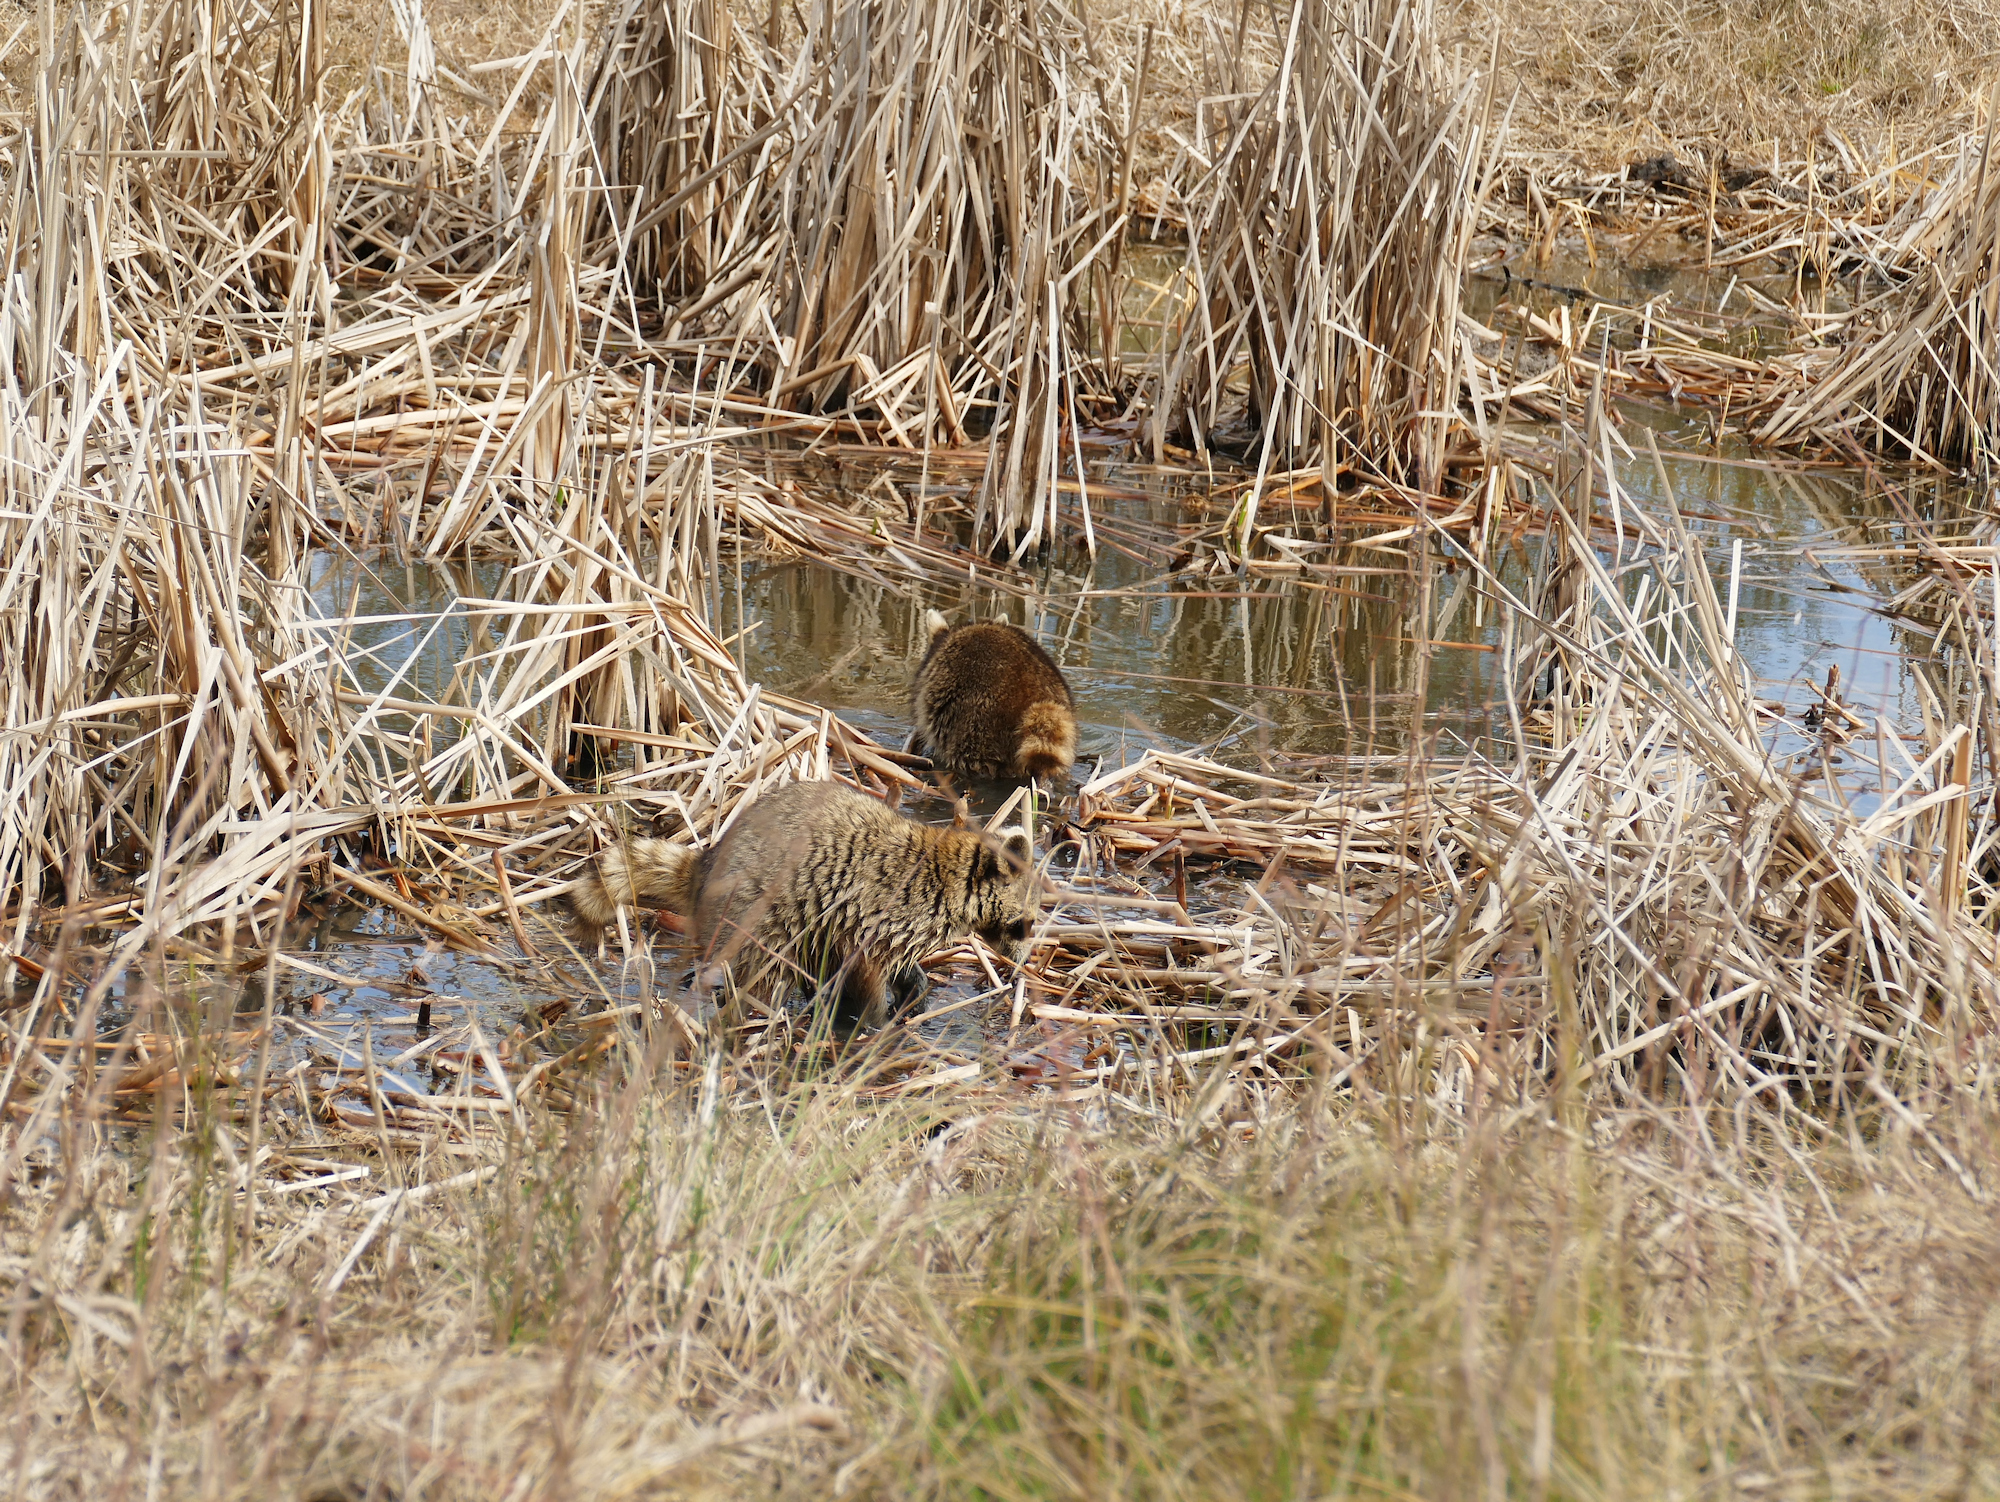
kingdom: Animalia
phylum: Chordata
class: Mammalia
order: Carnivora
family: Procyonidae
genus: Procyon
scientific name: Procyon lotor
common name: Raccoon
